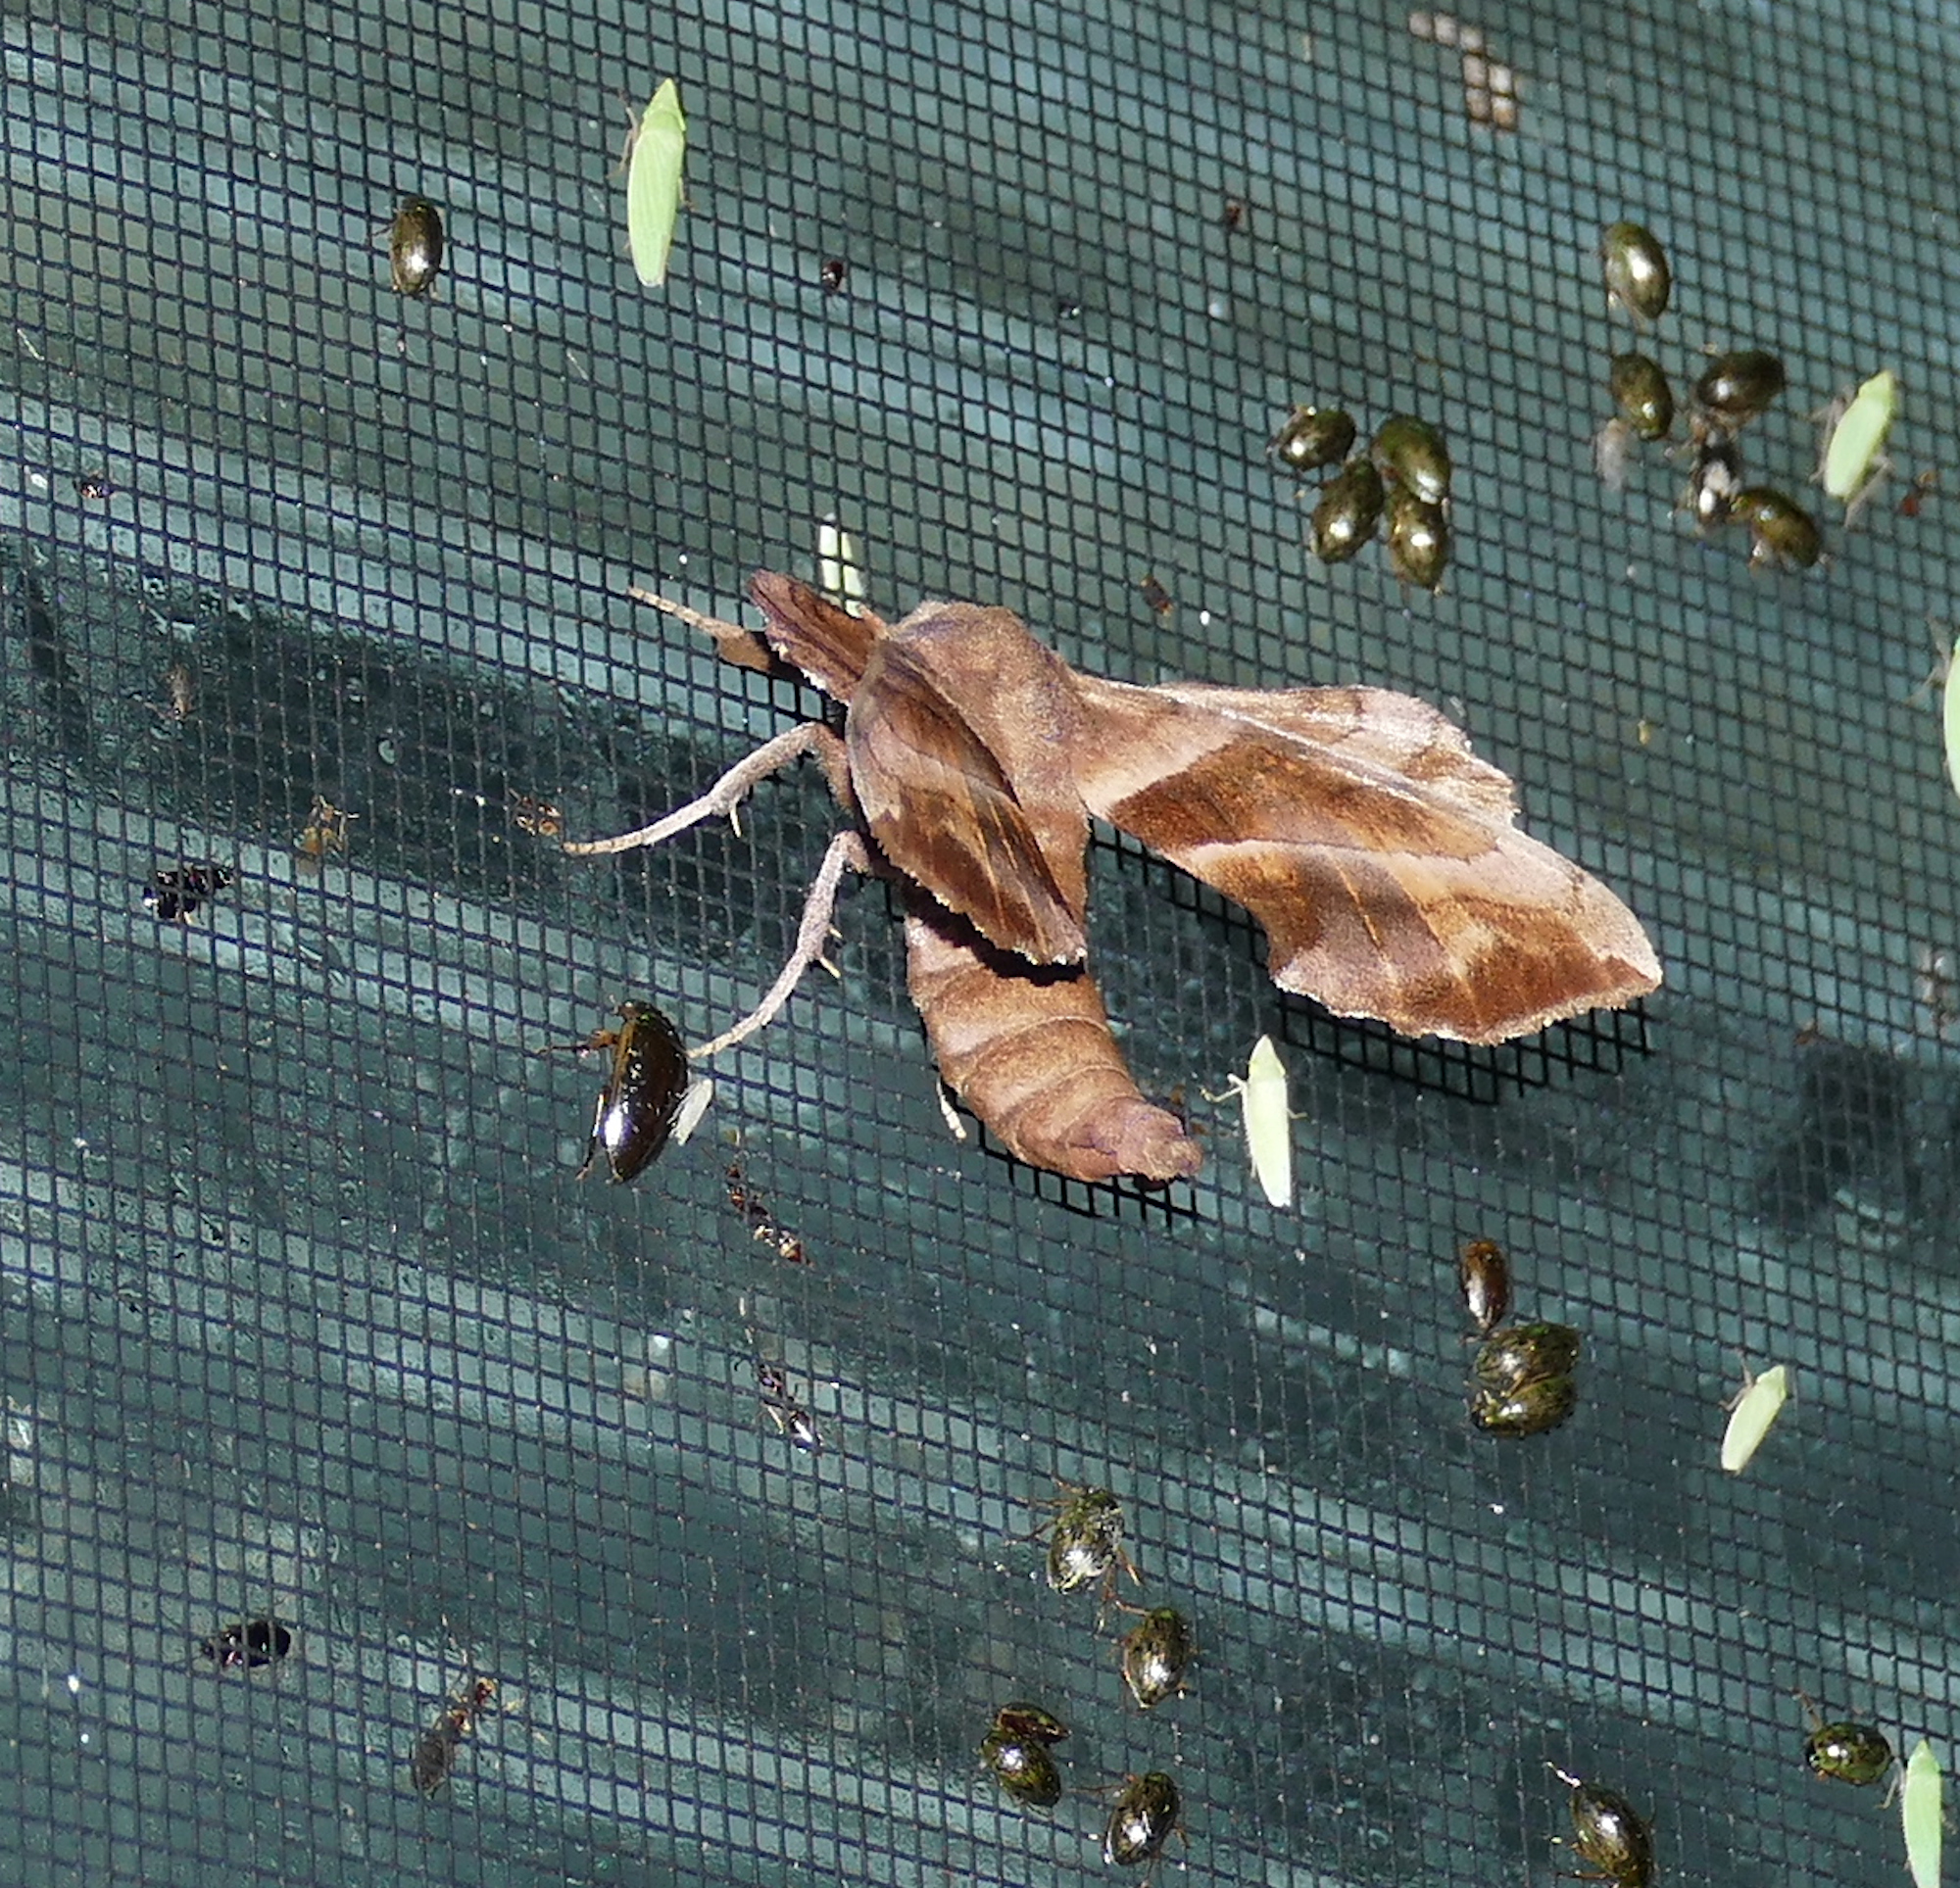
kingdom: Animalia
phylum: Arthropoda
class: Insecta
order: Lepidoptera
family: Sphingidae
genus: Amorpha
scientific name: Amorpha juglandis
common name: Walnut sphinx
